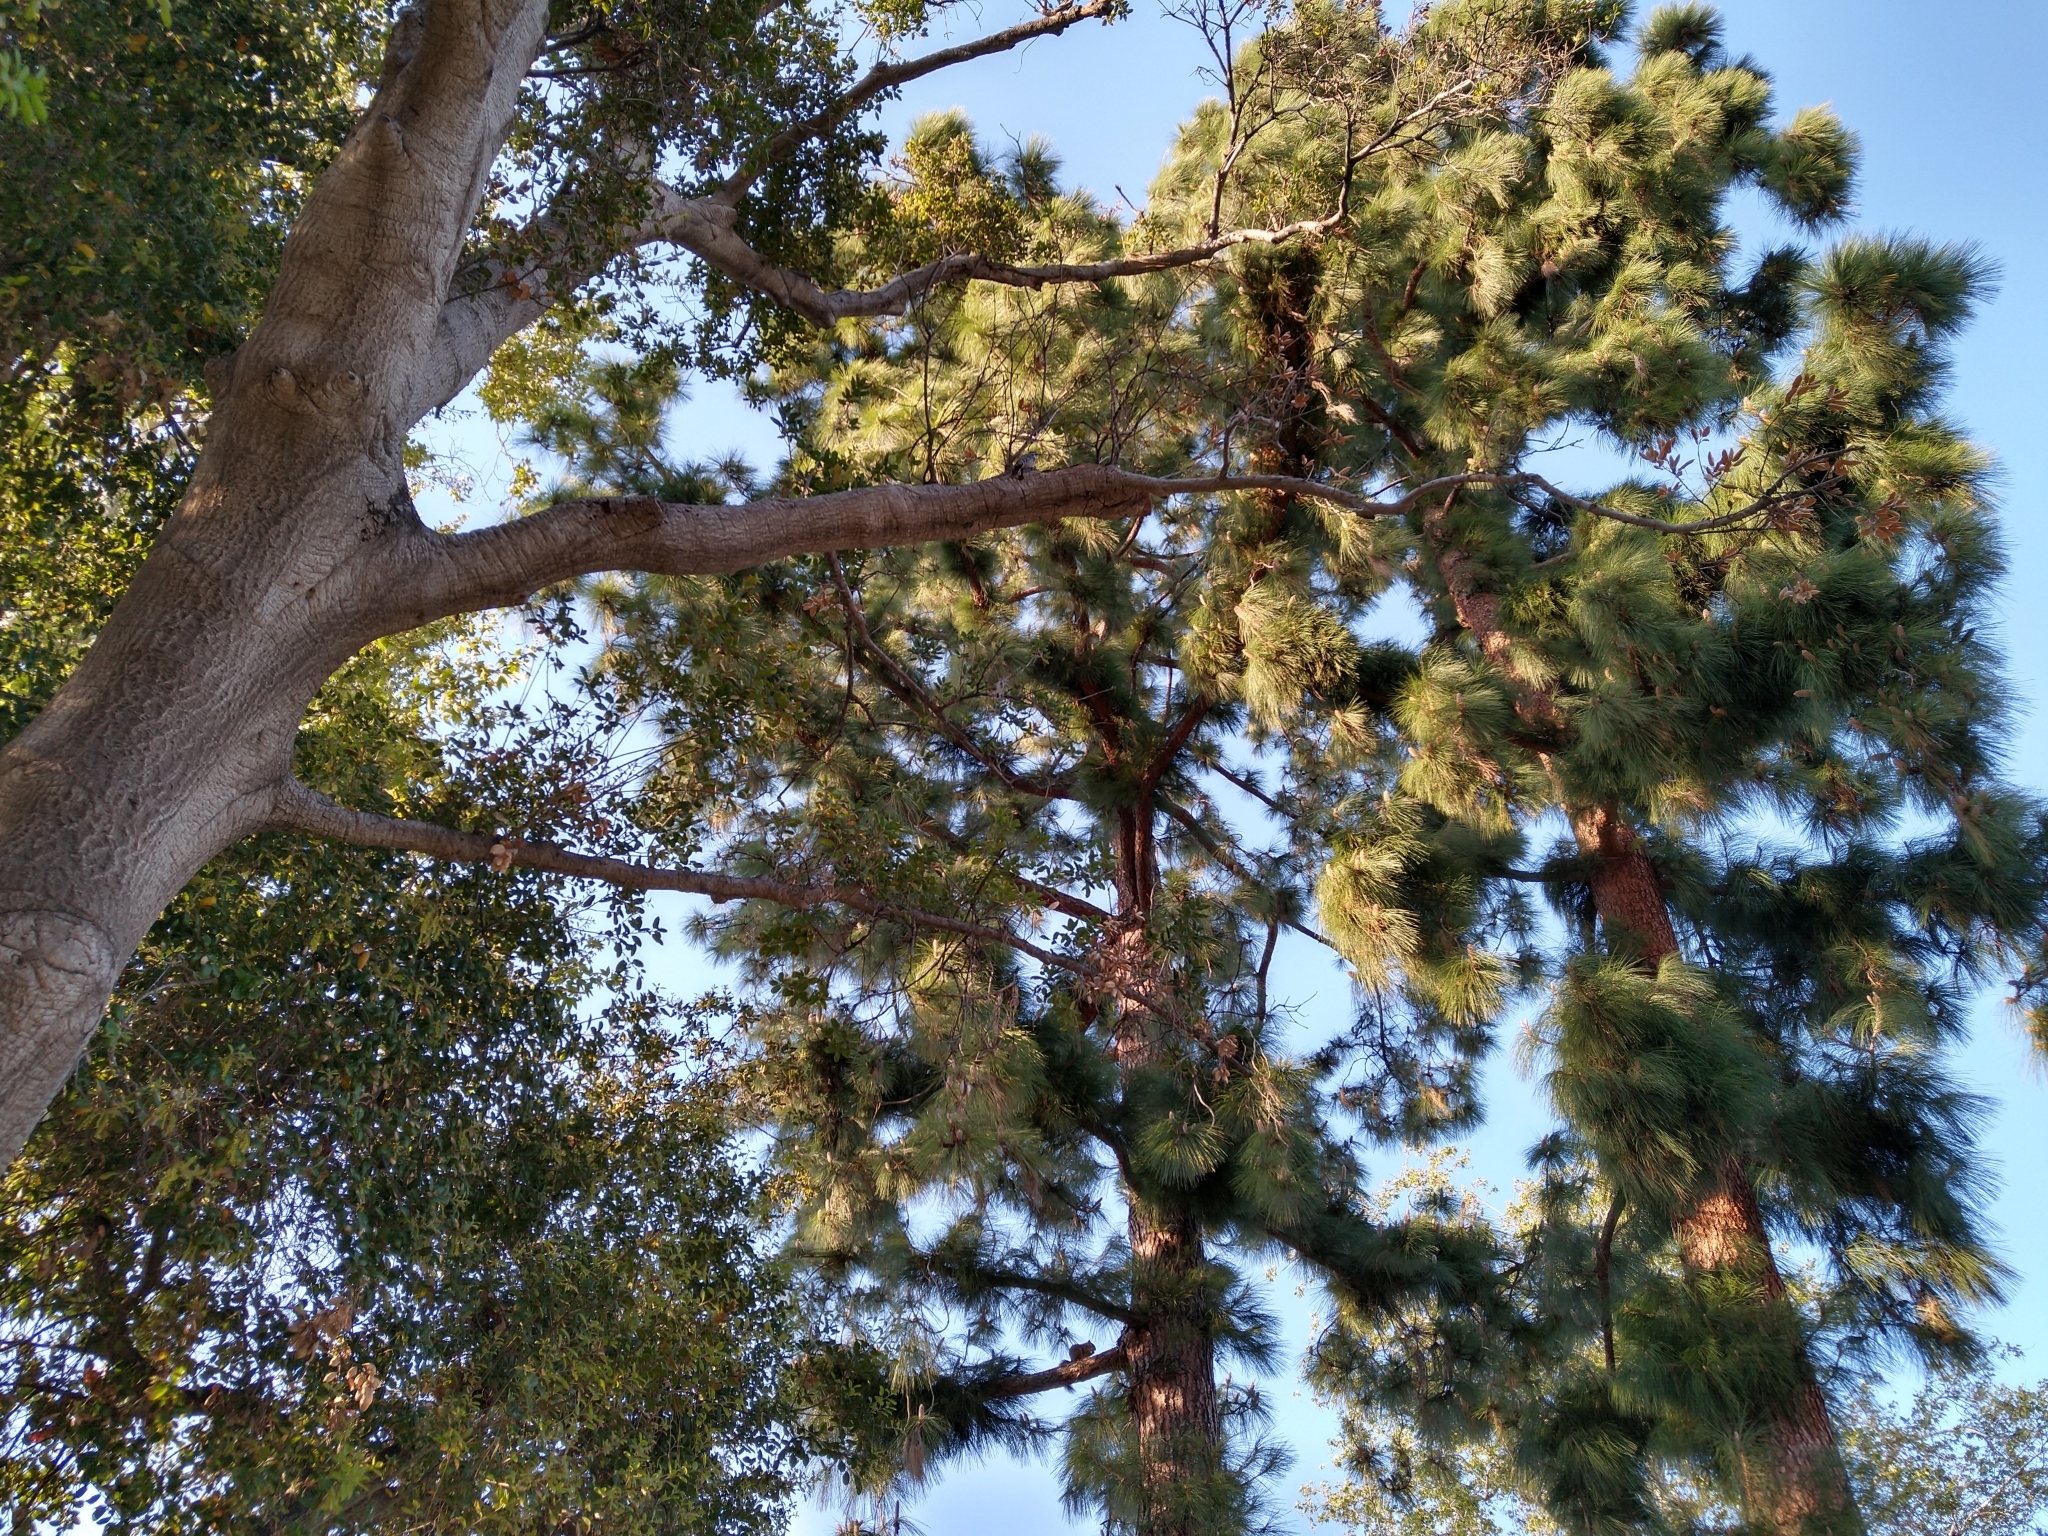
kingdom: Animalia
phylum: Chordata
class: Aves
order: Piciformes
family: Picidae
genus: Dryobates
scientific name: Dryobates nuttallii
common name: Nuttall's woodpecker
